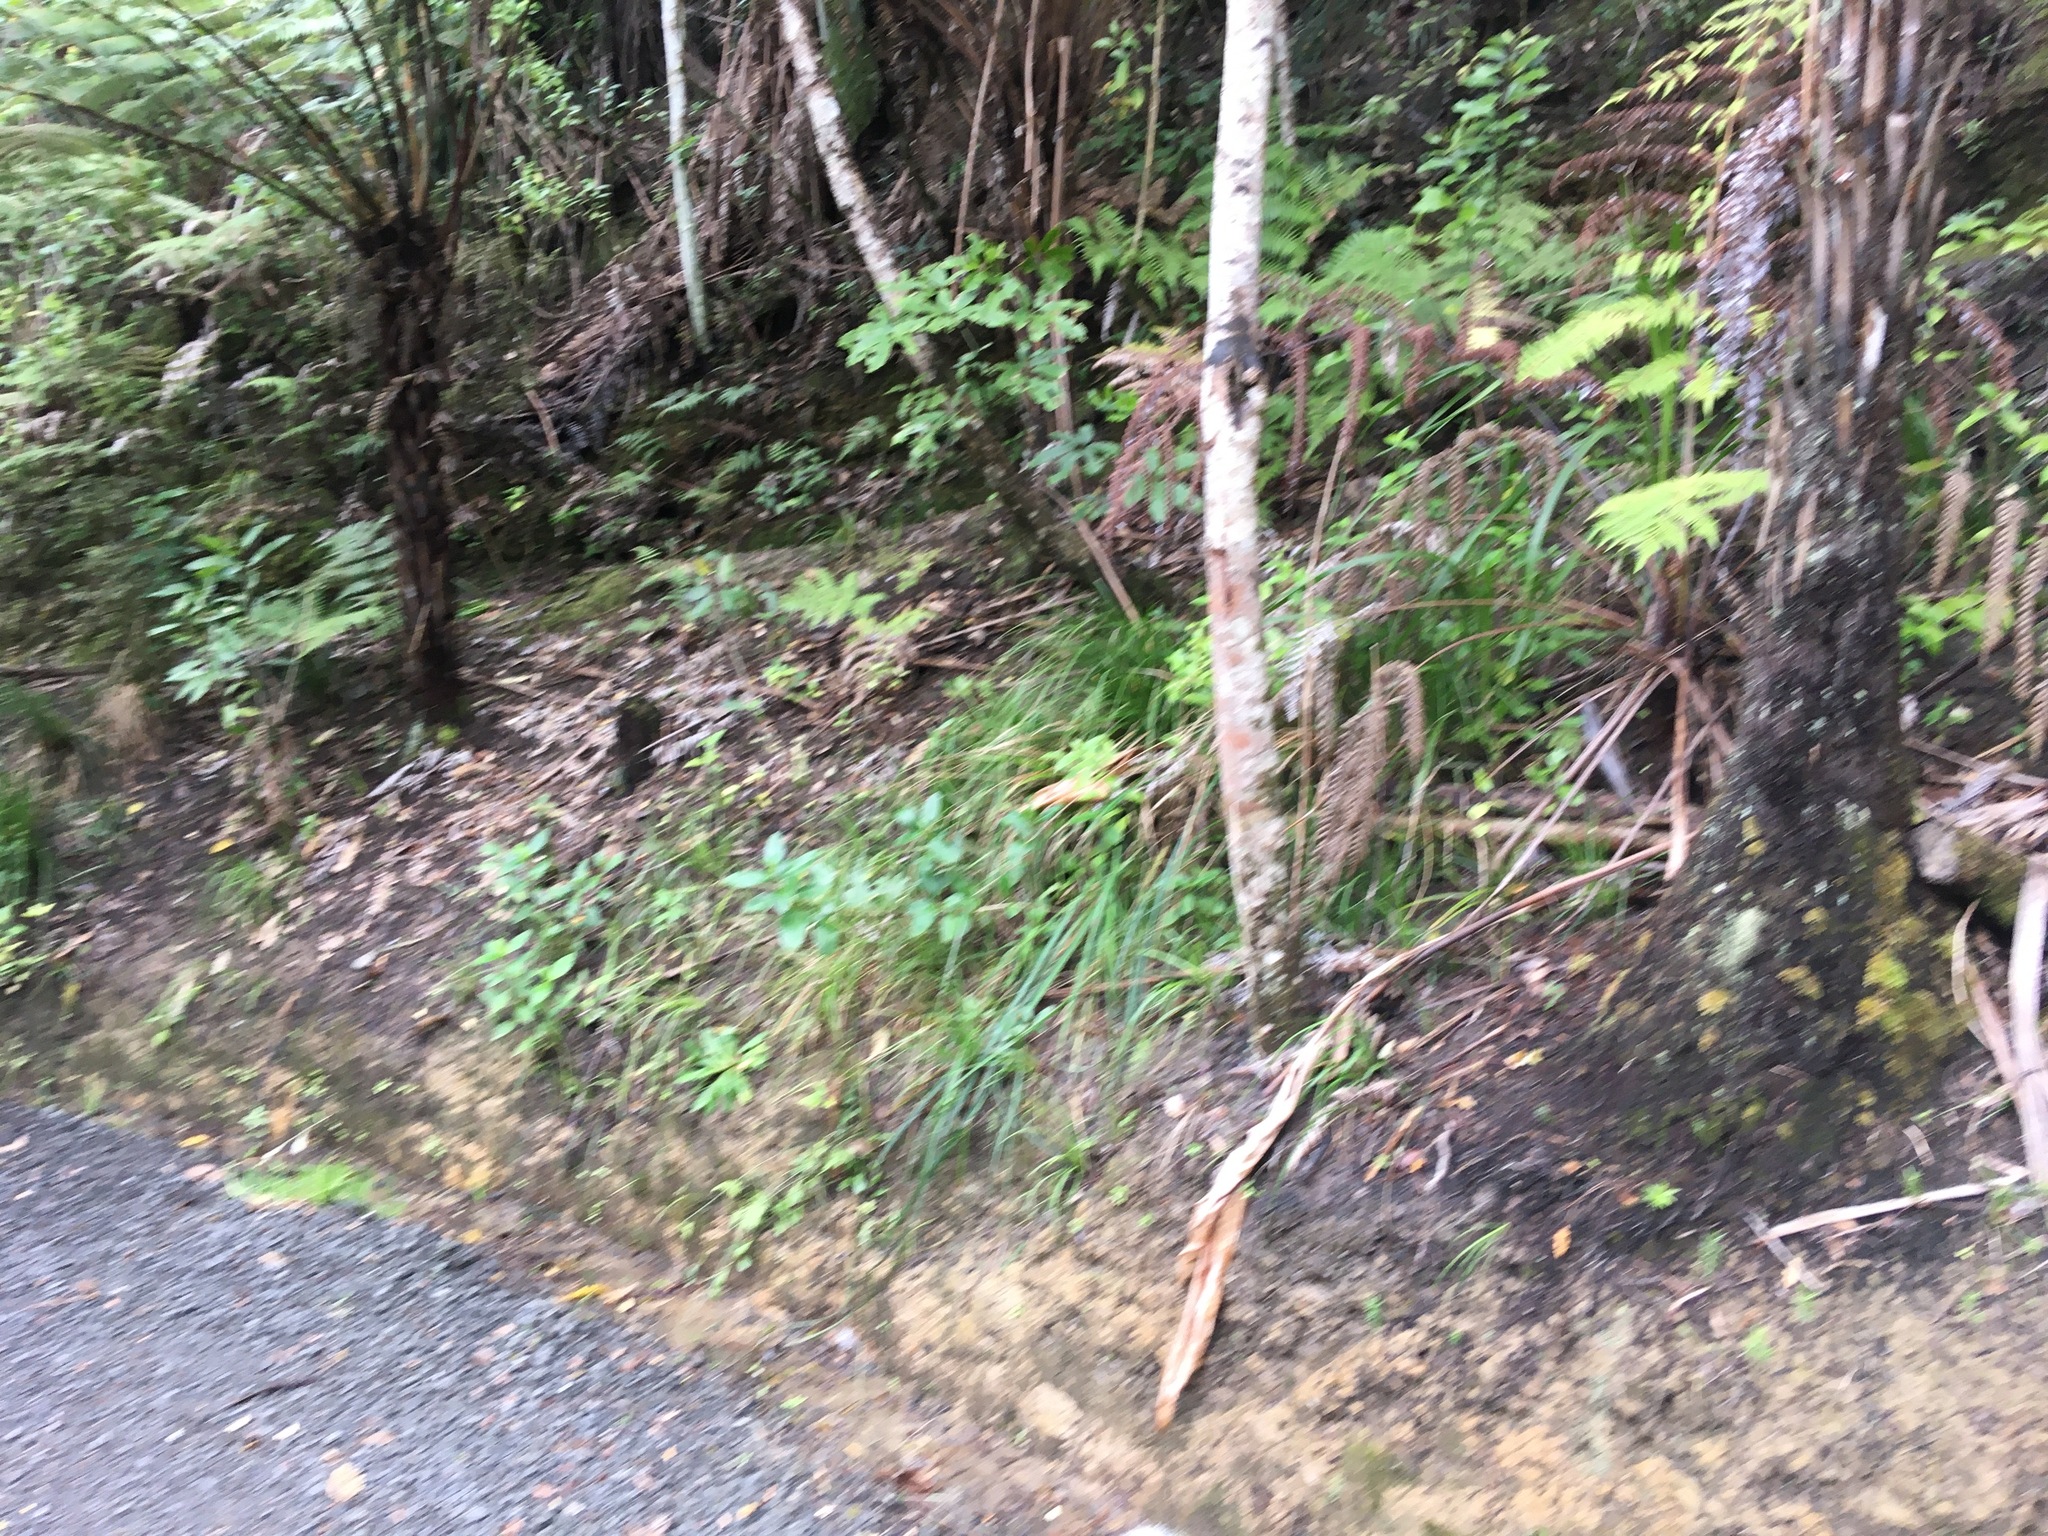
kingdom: Plantae
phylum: Tracheophyta
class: Polypodiopsida
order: Cyatheales
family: Cyatheaceae
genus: Alsophila
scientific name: Alsophila dealbata
